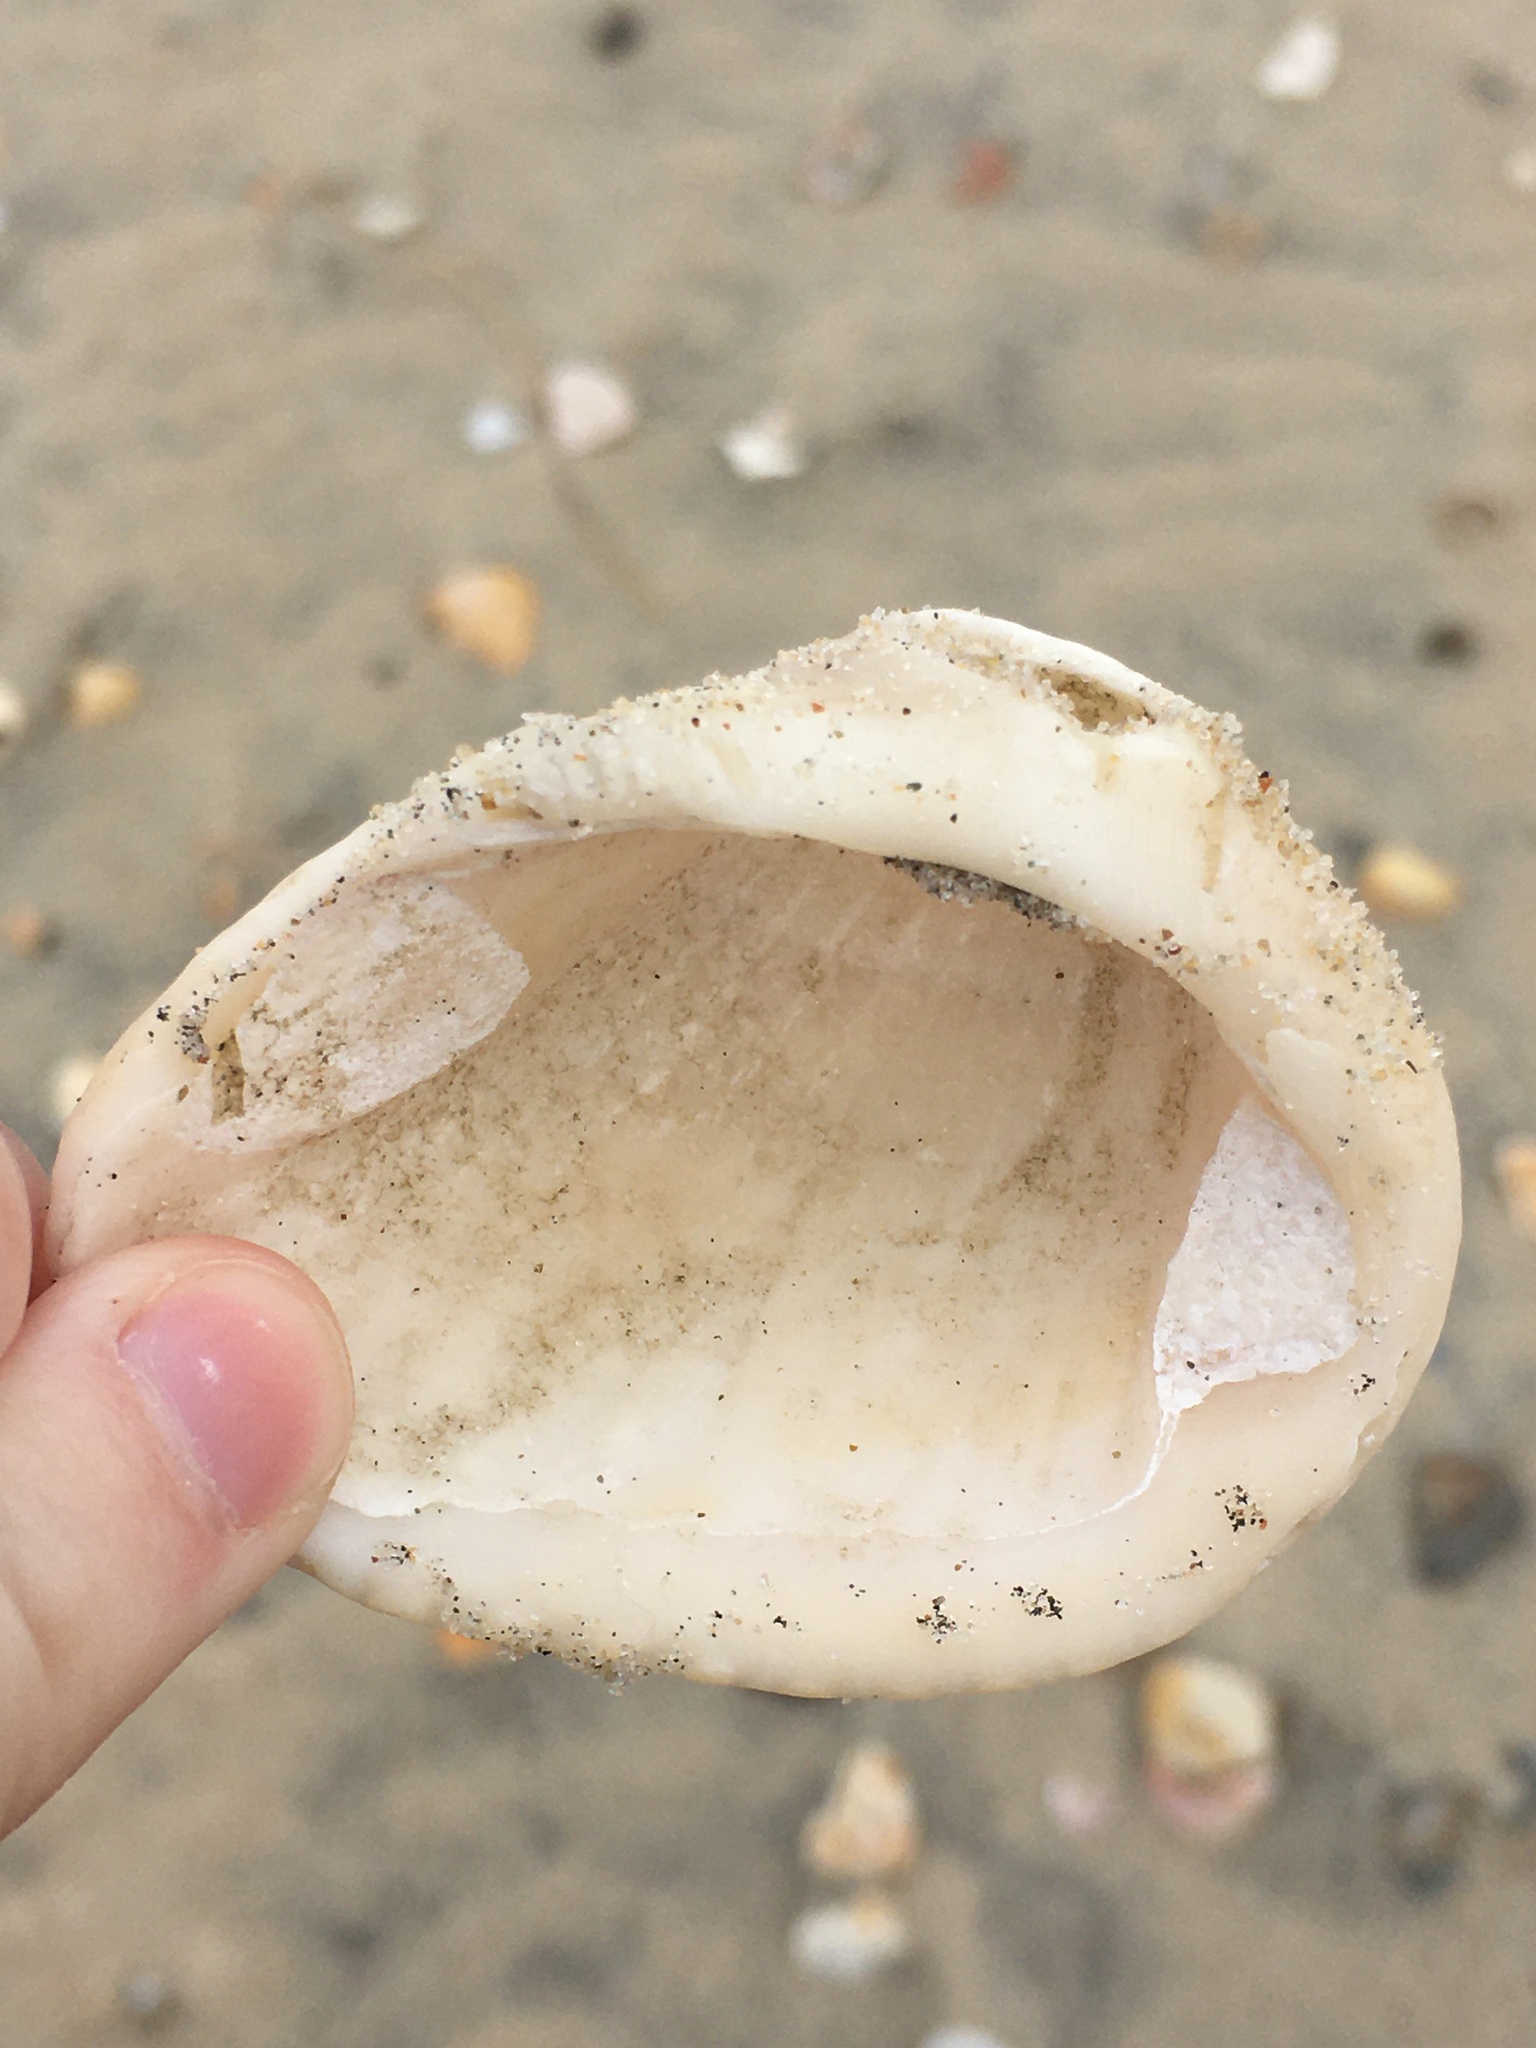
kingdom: Animalia
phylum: Mollusca
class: Bivalvia
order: Arcida
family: Noetiidae
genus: Noetia
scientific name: Noetia ponderosa
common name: Ponderous ark
